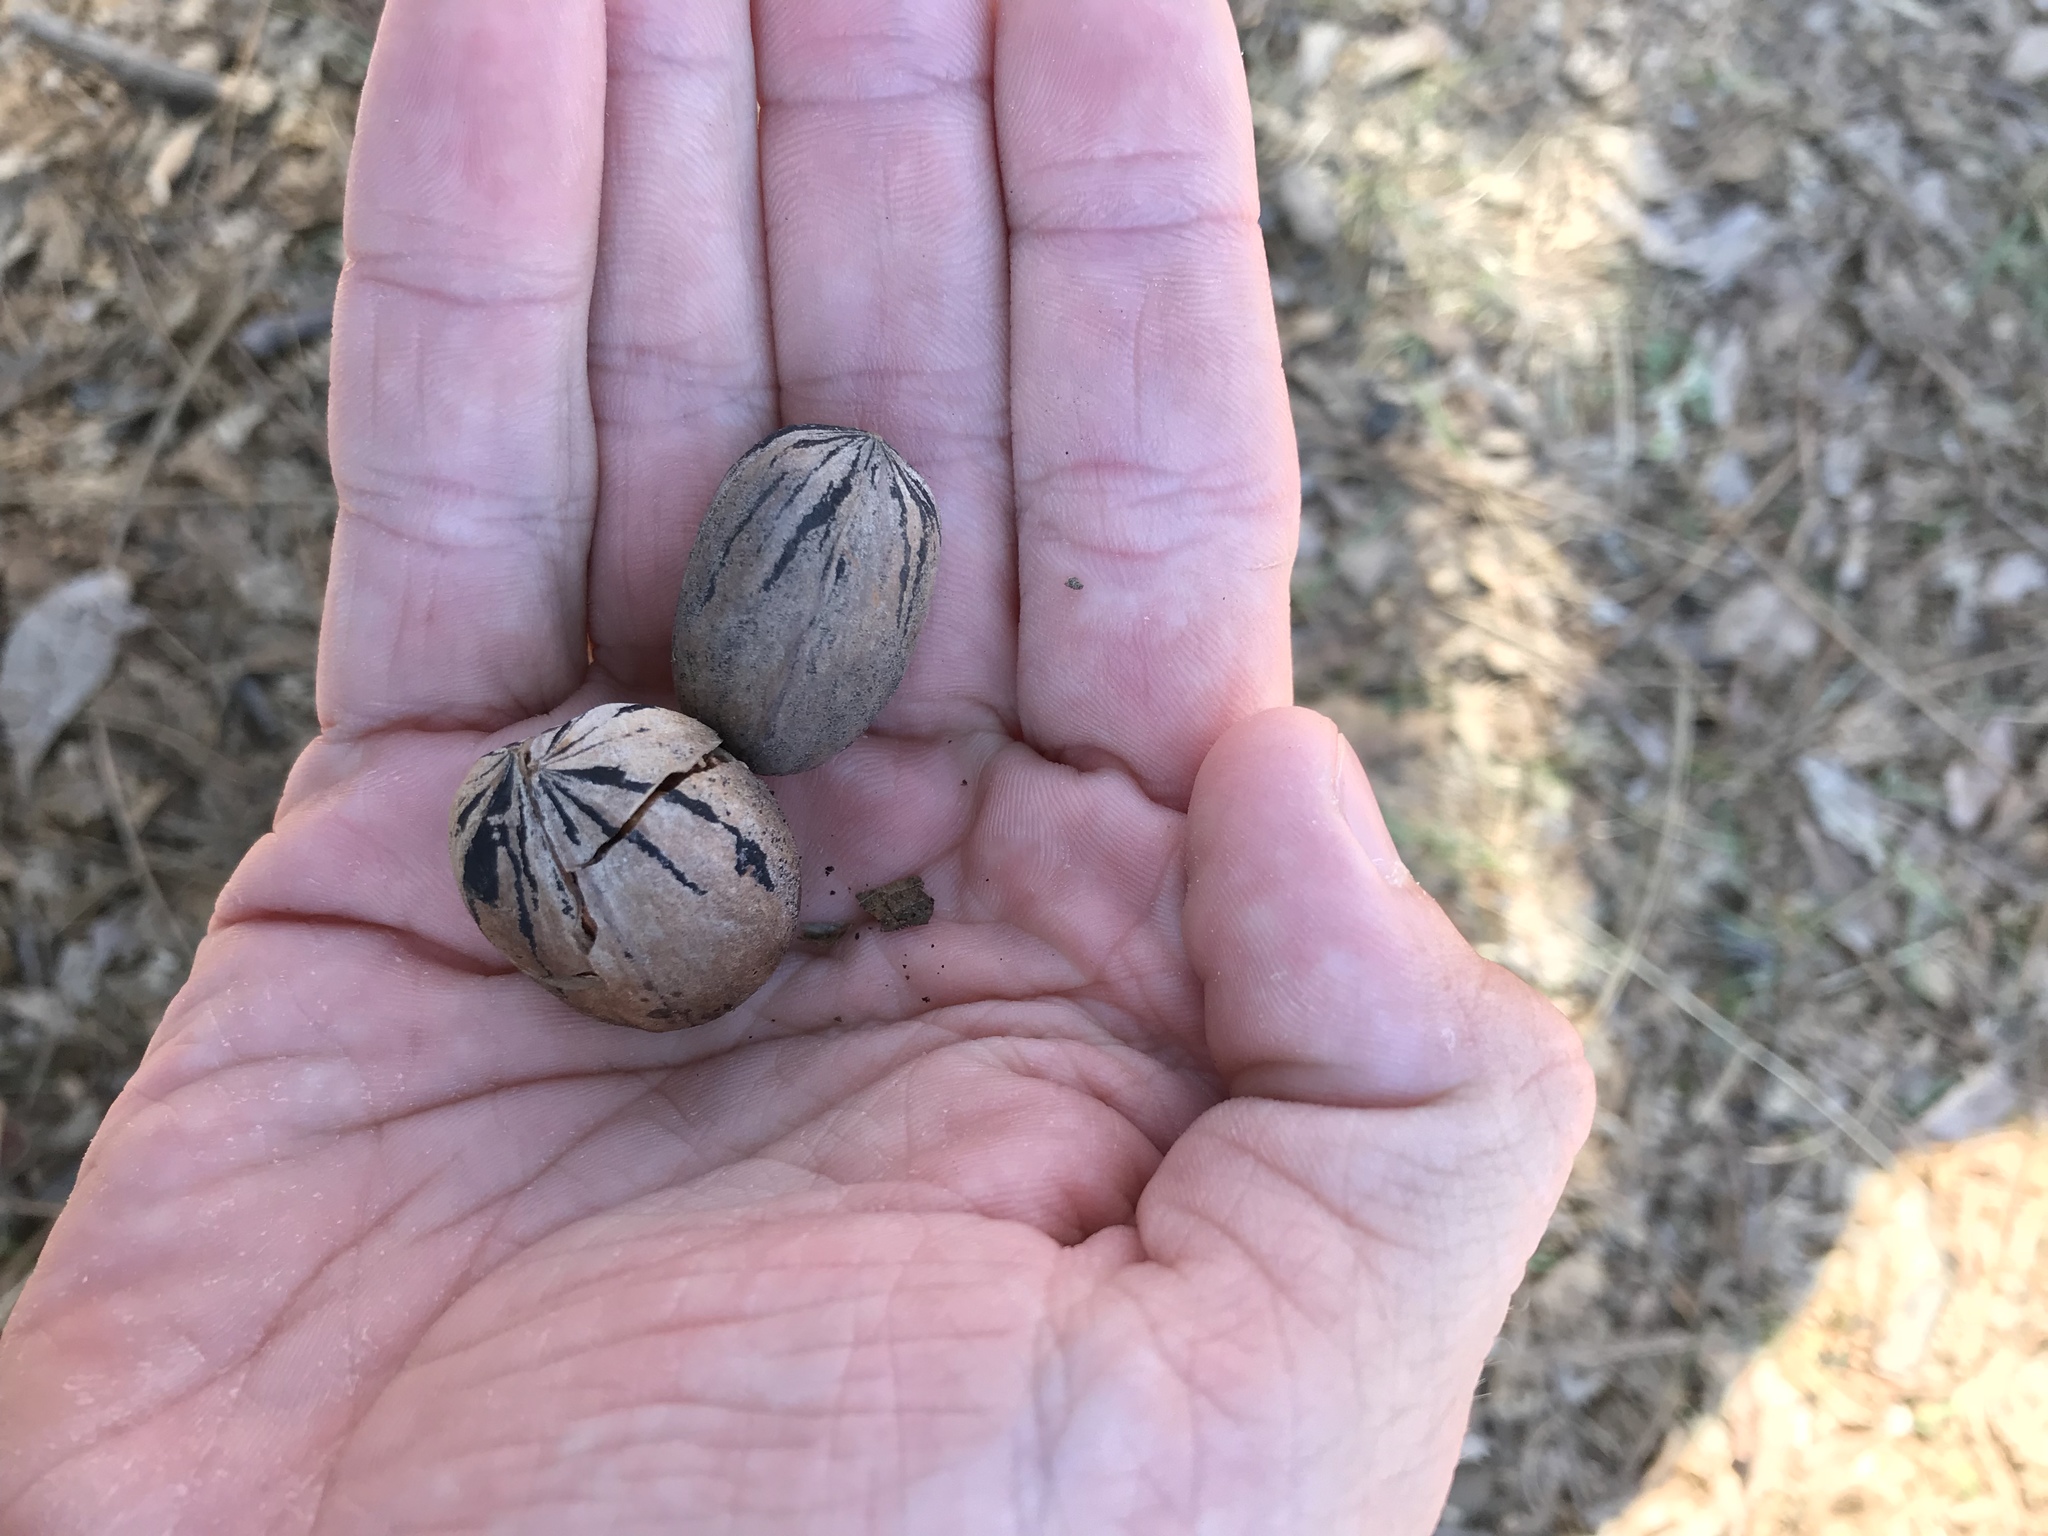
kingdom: Plantae
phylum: Tracheophyta
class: Magnoliopsida
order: Fagales
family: Juglandaceae
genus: Carya
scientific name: Carya illinoinensis
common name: Pecan
